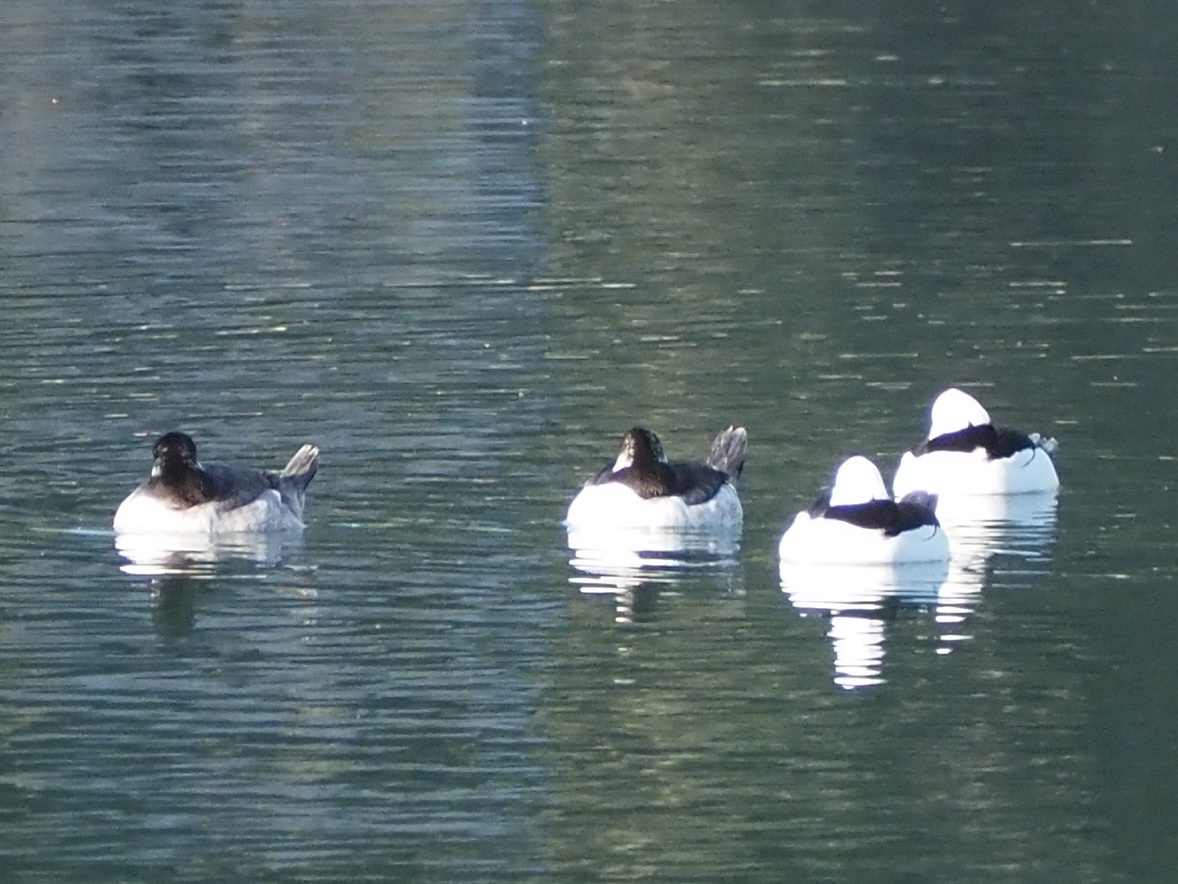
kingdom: Animalia
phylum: Chordata
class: Aves
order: Anseriformes
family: Anatidae
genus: Bucephala
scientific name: Bucephala albeola
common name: Bufflehead
